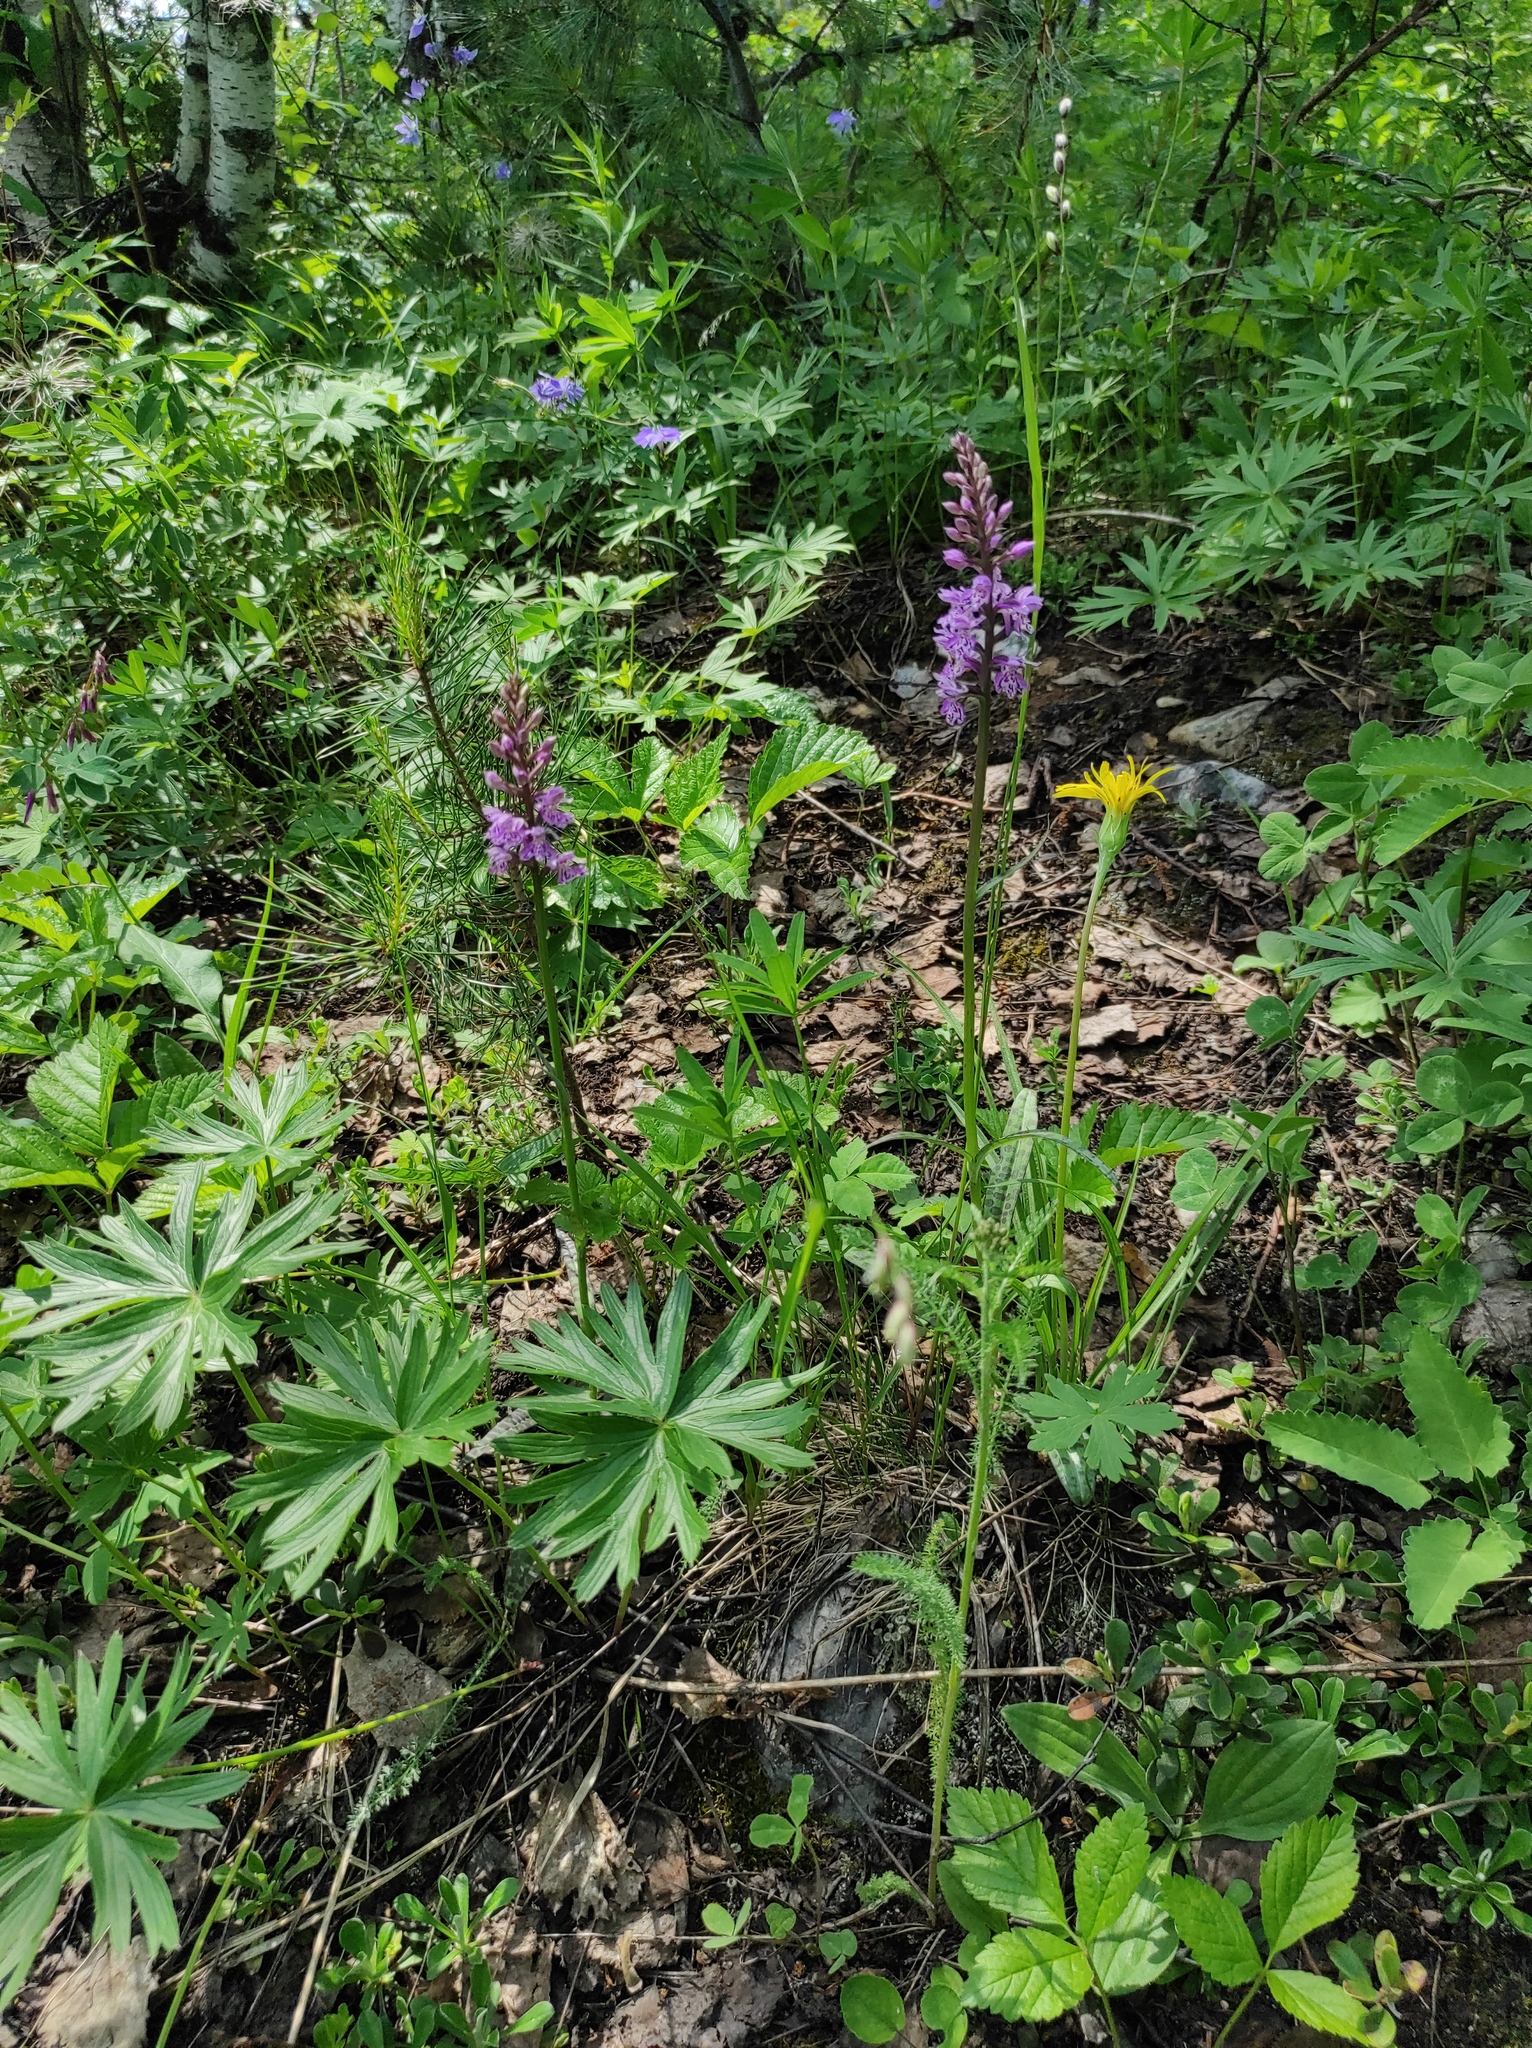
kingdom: Plantae
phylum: Tracheophyta
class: Magnoliopsida
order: Rosales
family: Rosaceae
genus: Rubus
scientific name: Rubus saxatilis
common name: Stone bramble
